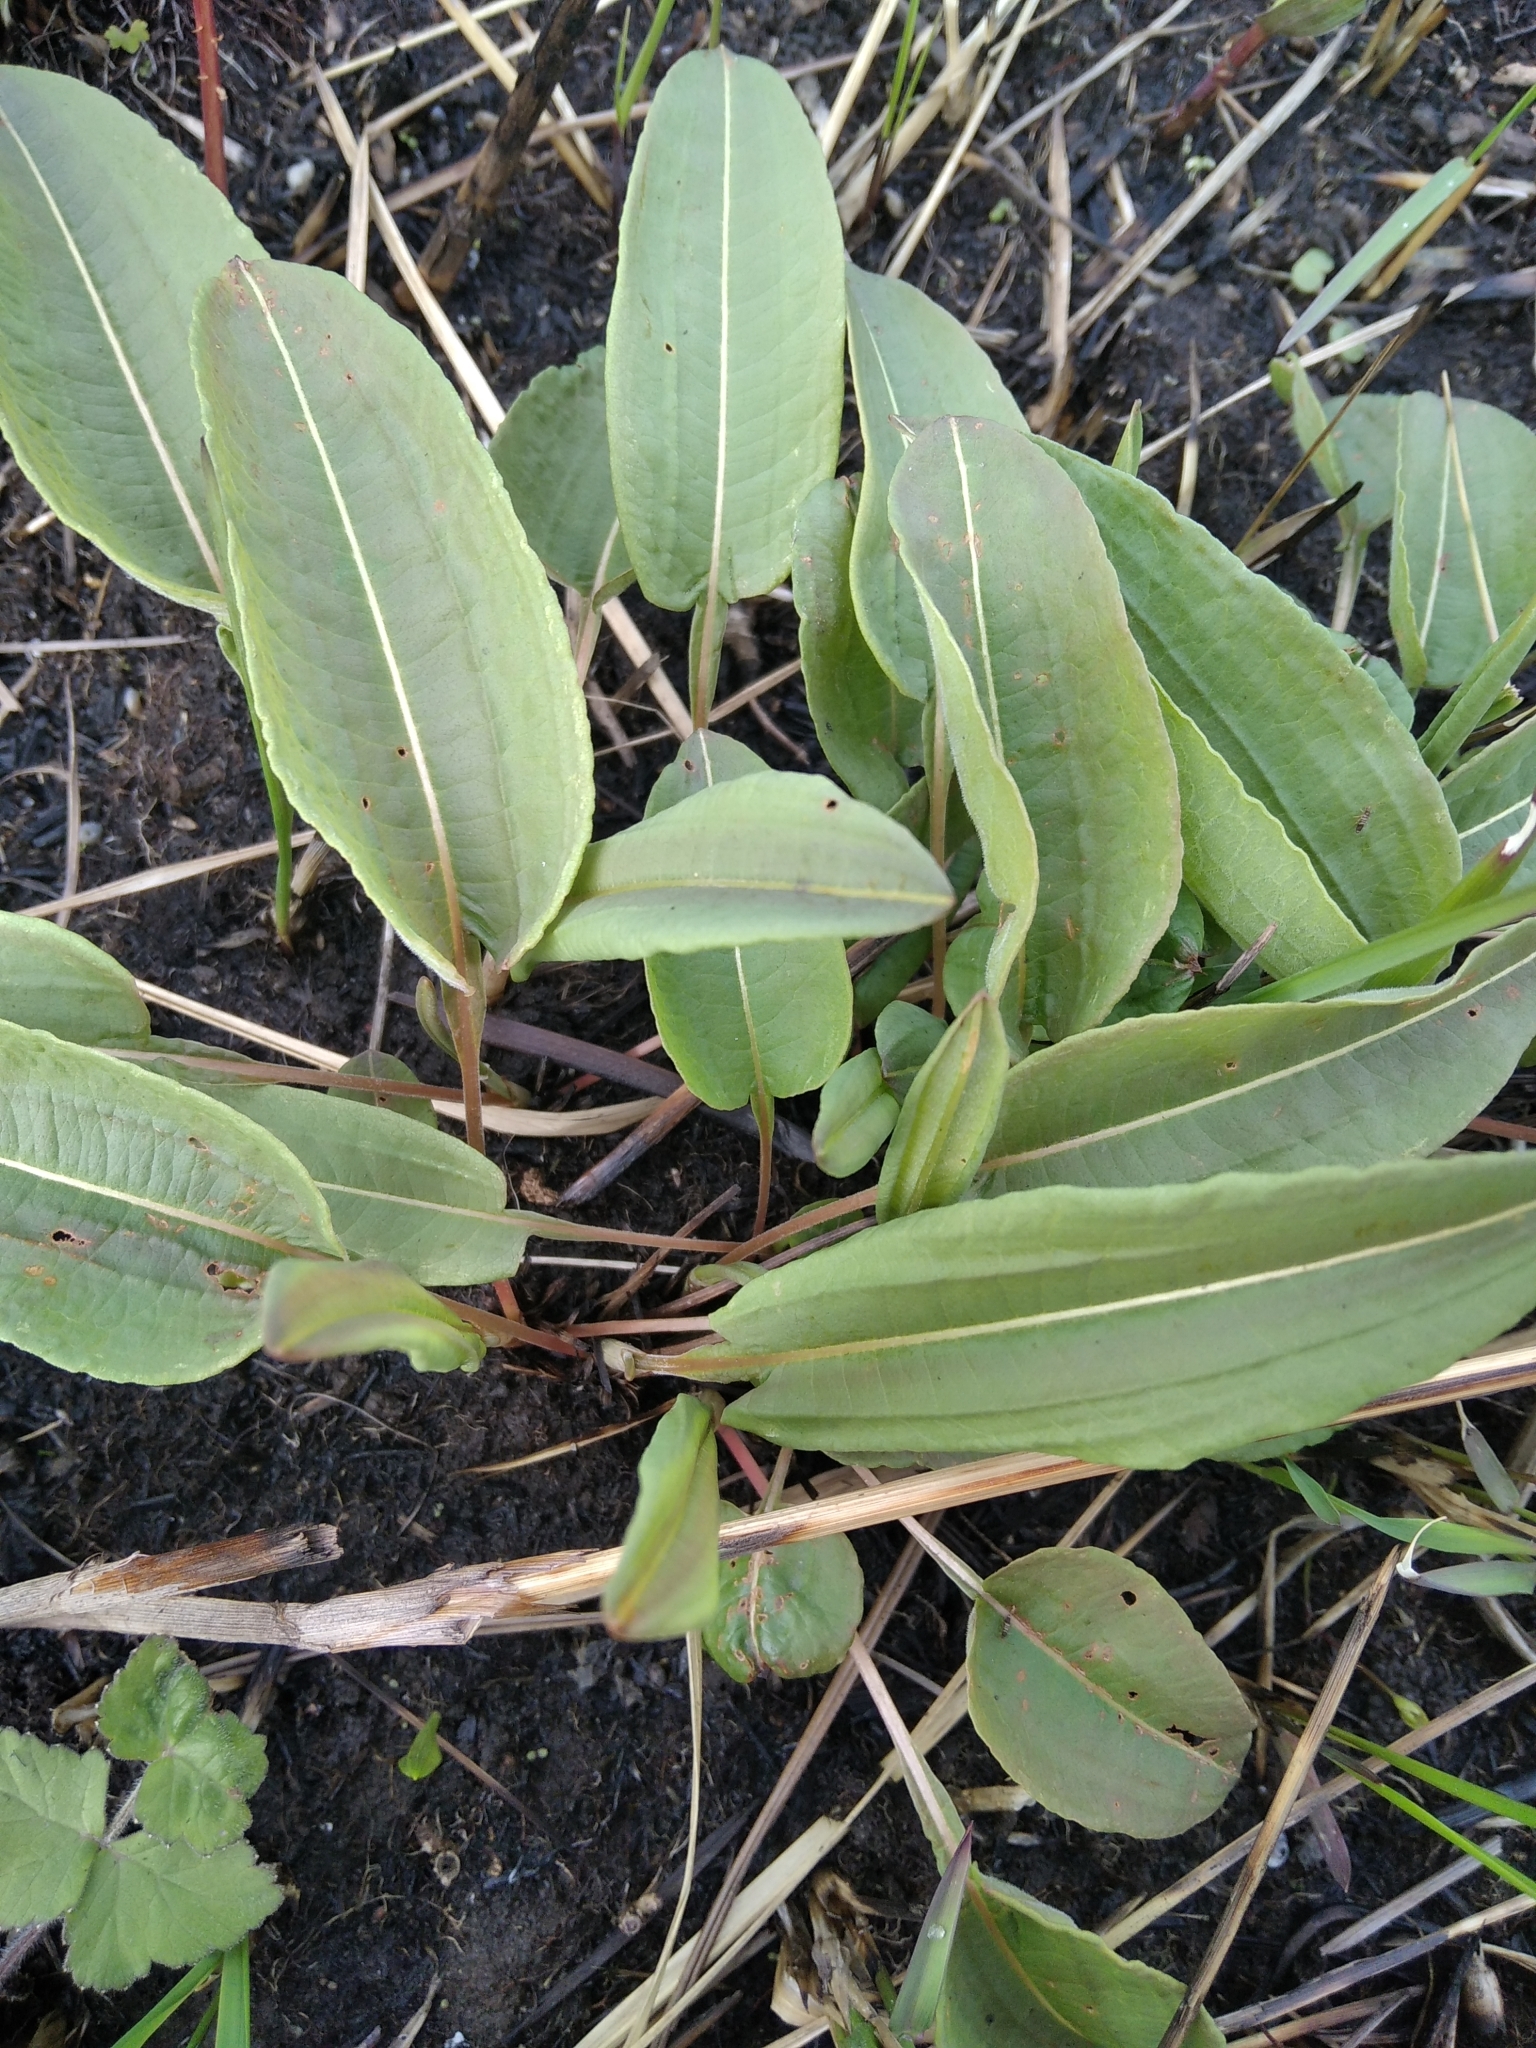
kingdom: Plantae
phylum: Tracheophyta
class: Magnoliopsida
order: Caryophyllales
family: Polygonaceae
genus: Bistorta
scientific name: Bistorta officinalis
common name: Common bistort
